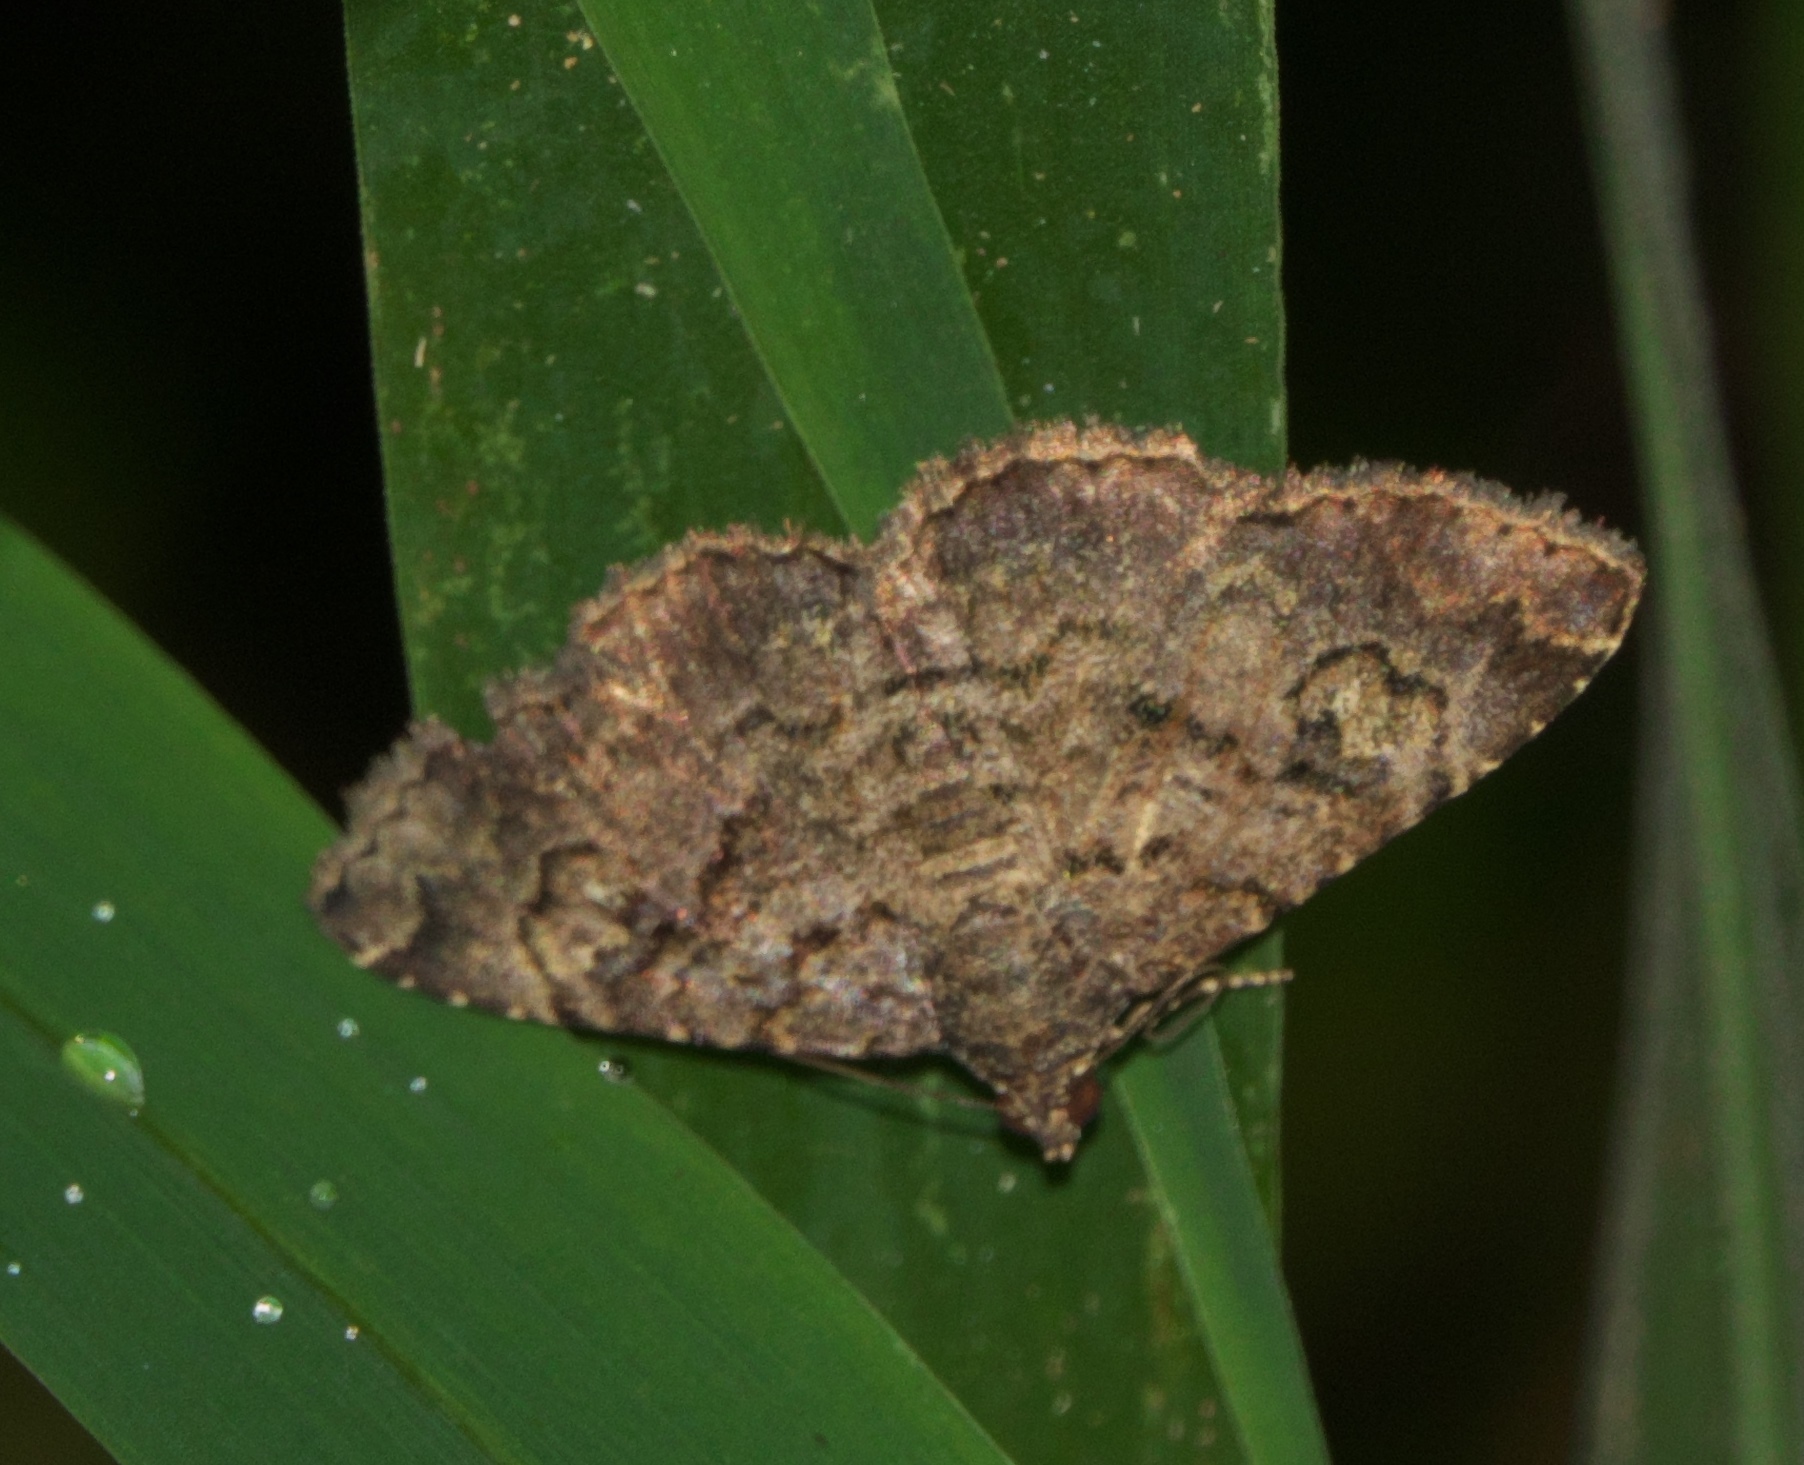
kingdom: Animalia
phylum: Arthropoda
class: Insecta
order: Lepidoptera
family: Erebidae
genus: Toxonprucha
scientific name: Toxonprucha excavata
